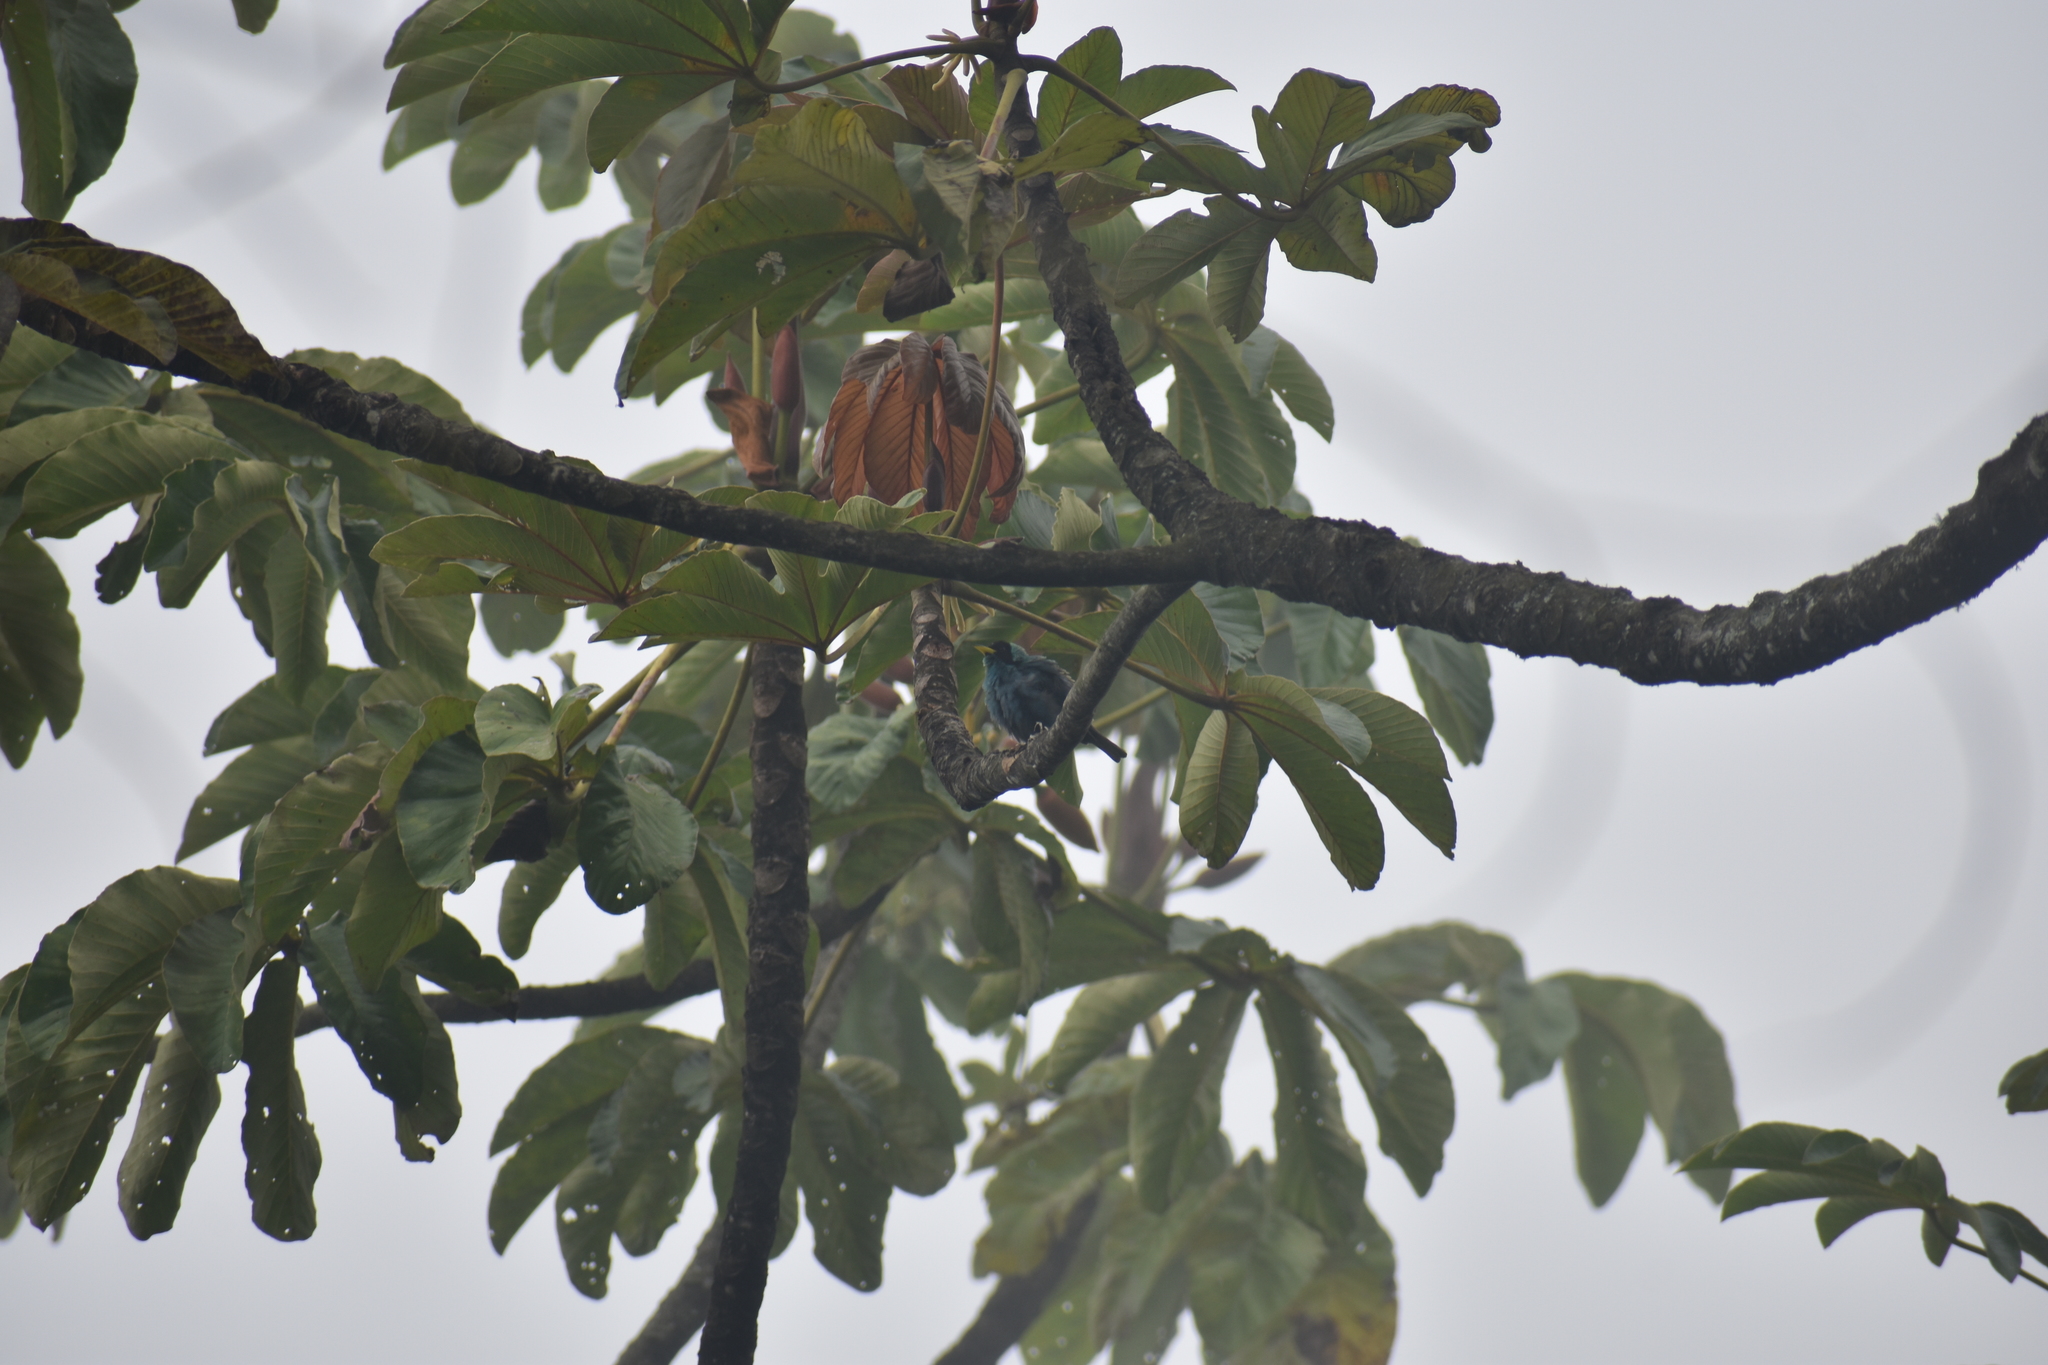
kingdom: Animalia
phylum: Chordata
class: Aves
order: Passeriformes
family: Thraupidae
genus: Chlorophanes
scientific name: Chlorophanes spiza
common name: Green honeycreeper
